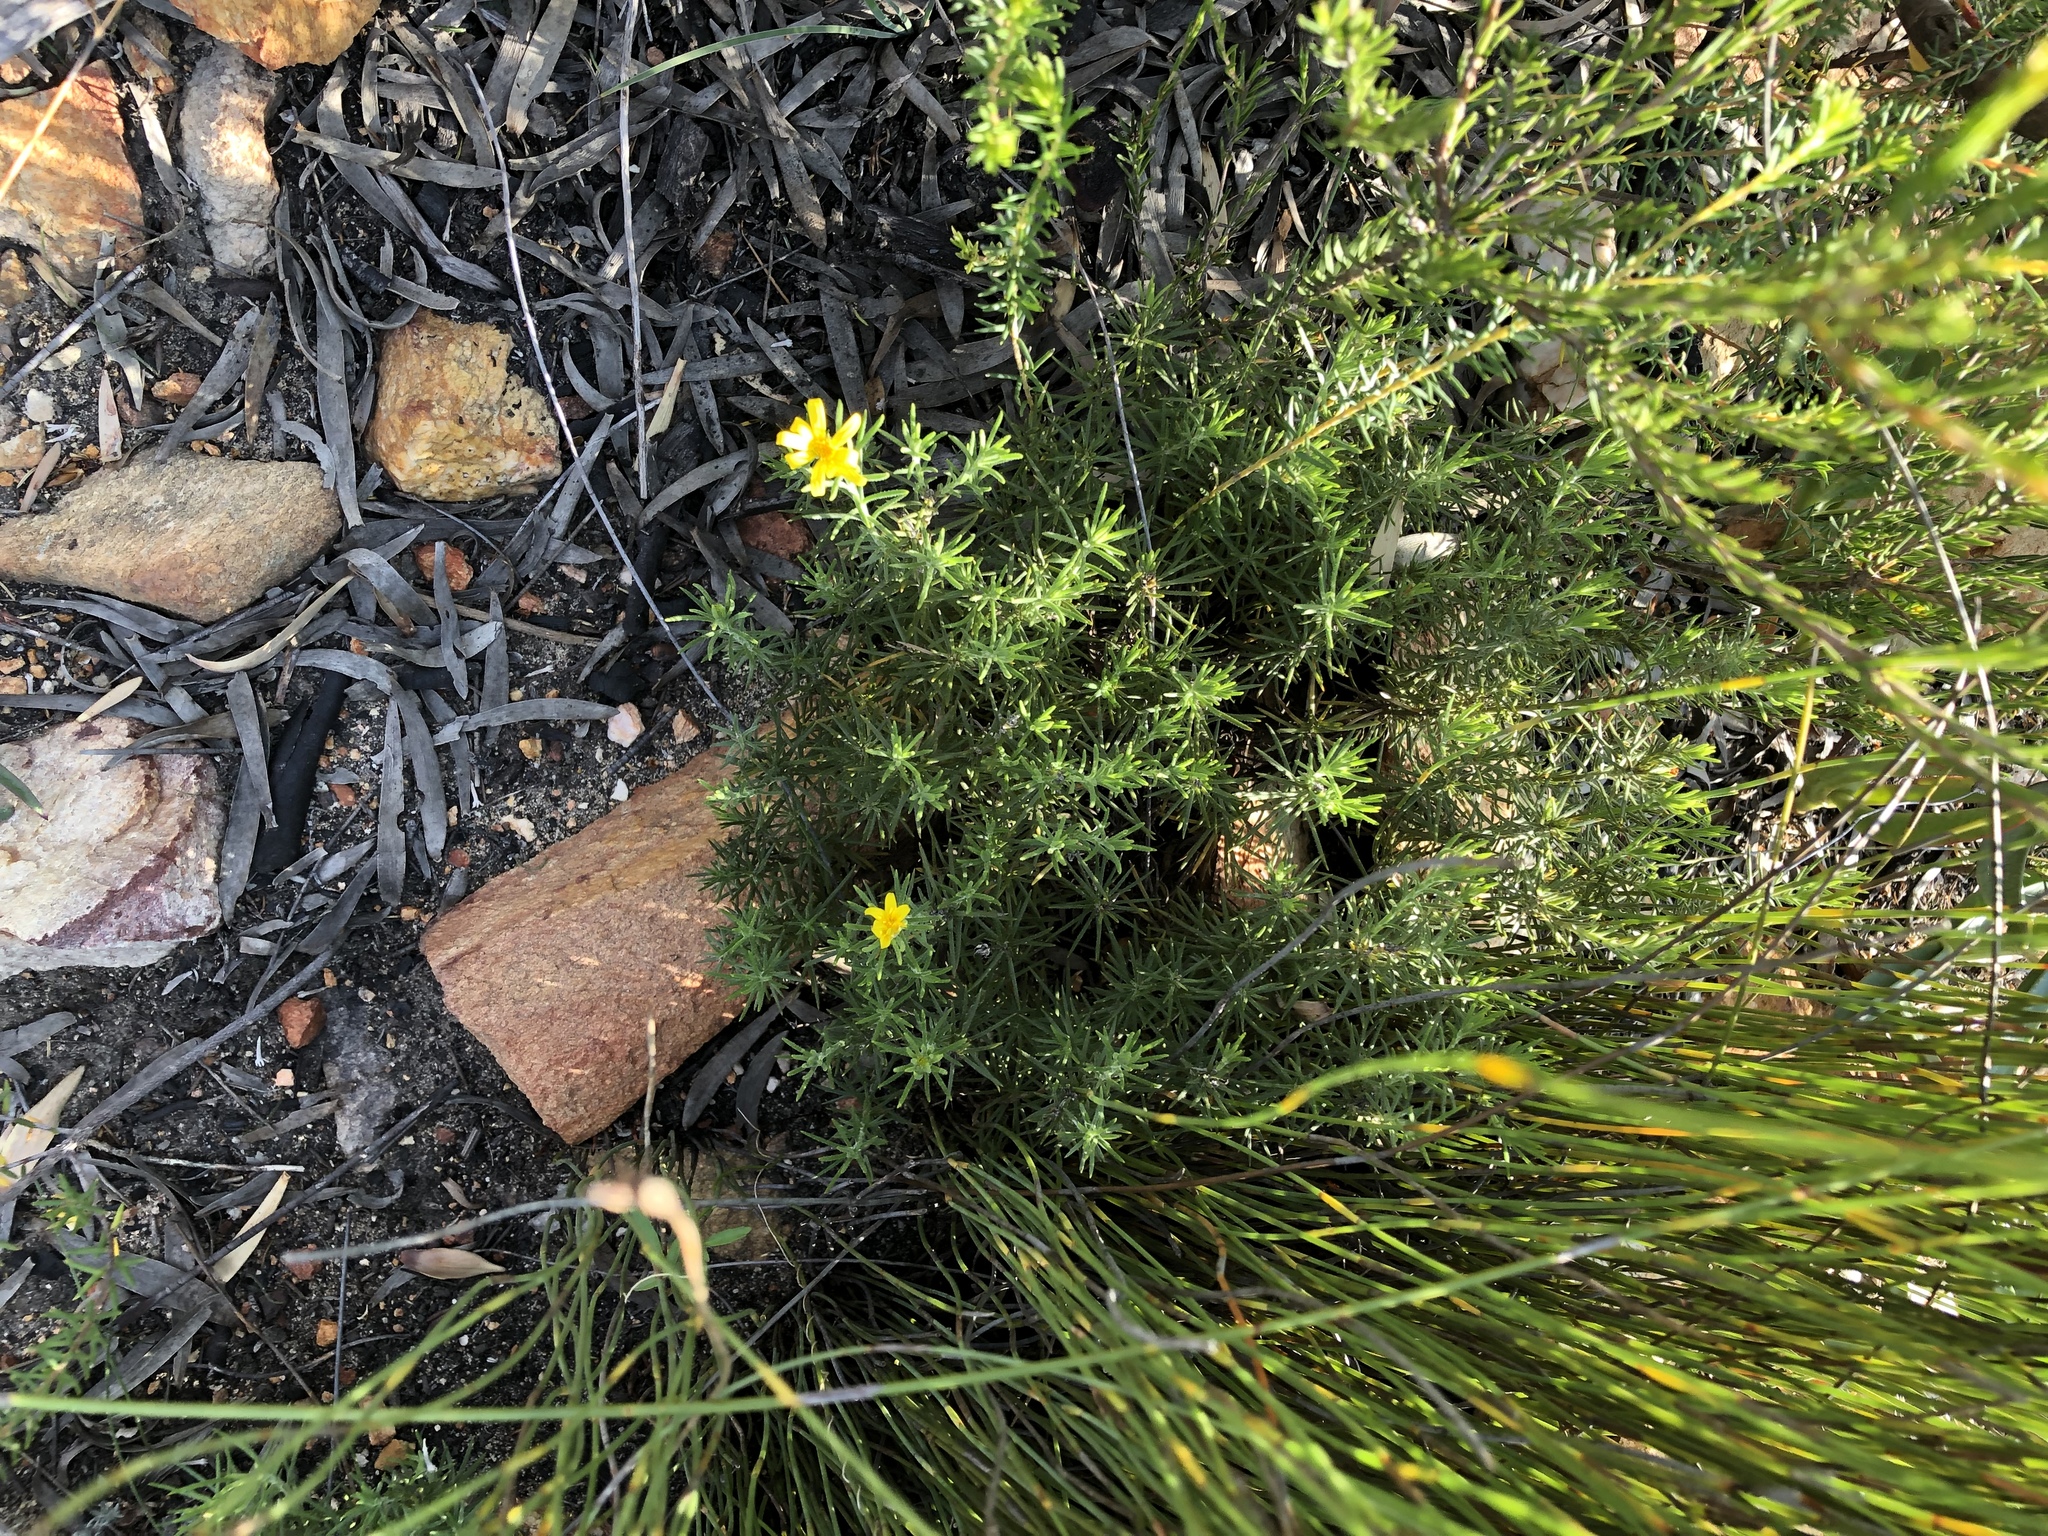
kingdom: Plantae
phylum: Tracheophyta
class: Magnoliopsida
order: Asterales
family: Asteraceae
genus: Gibbaria
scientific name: Gibbaria scabra
